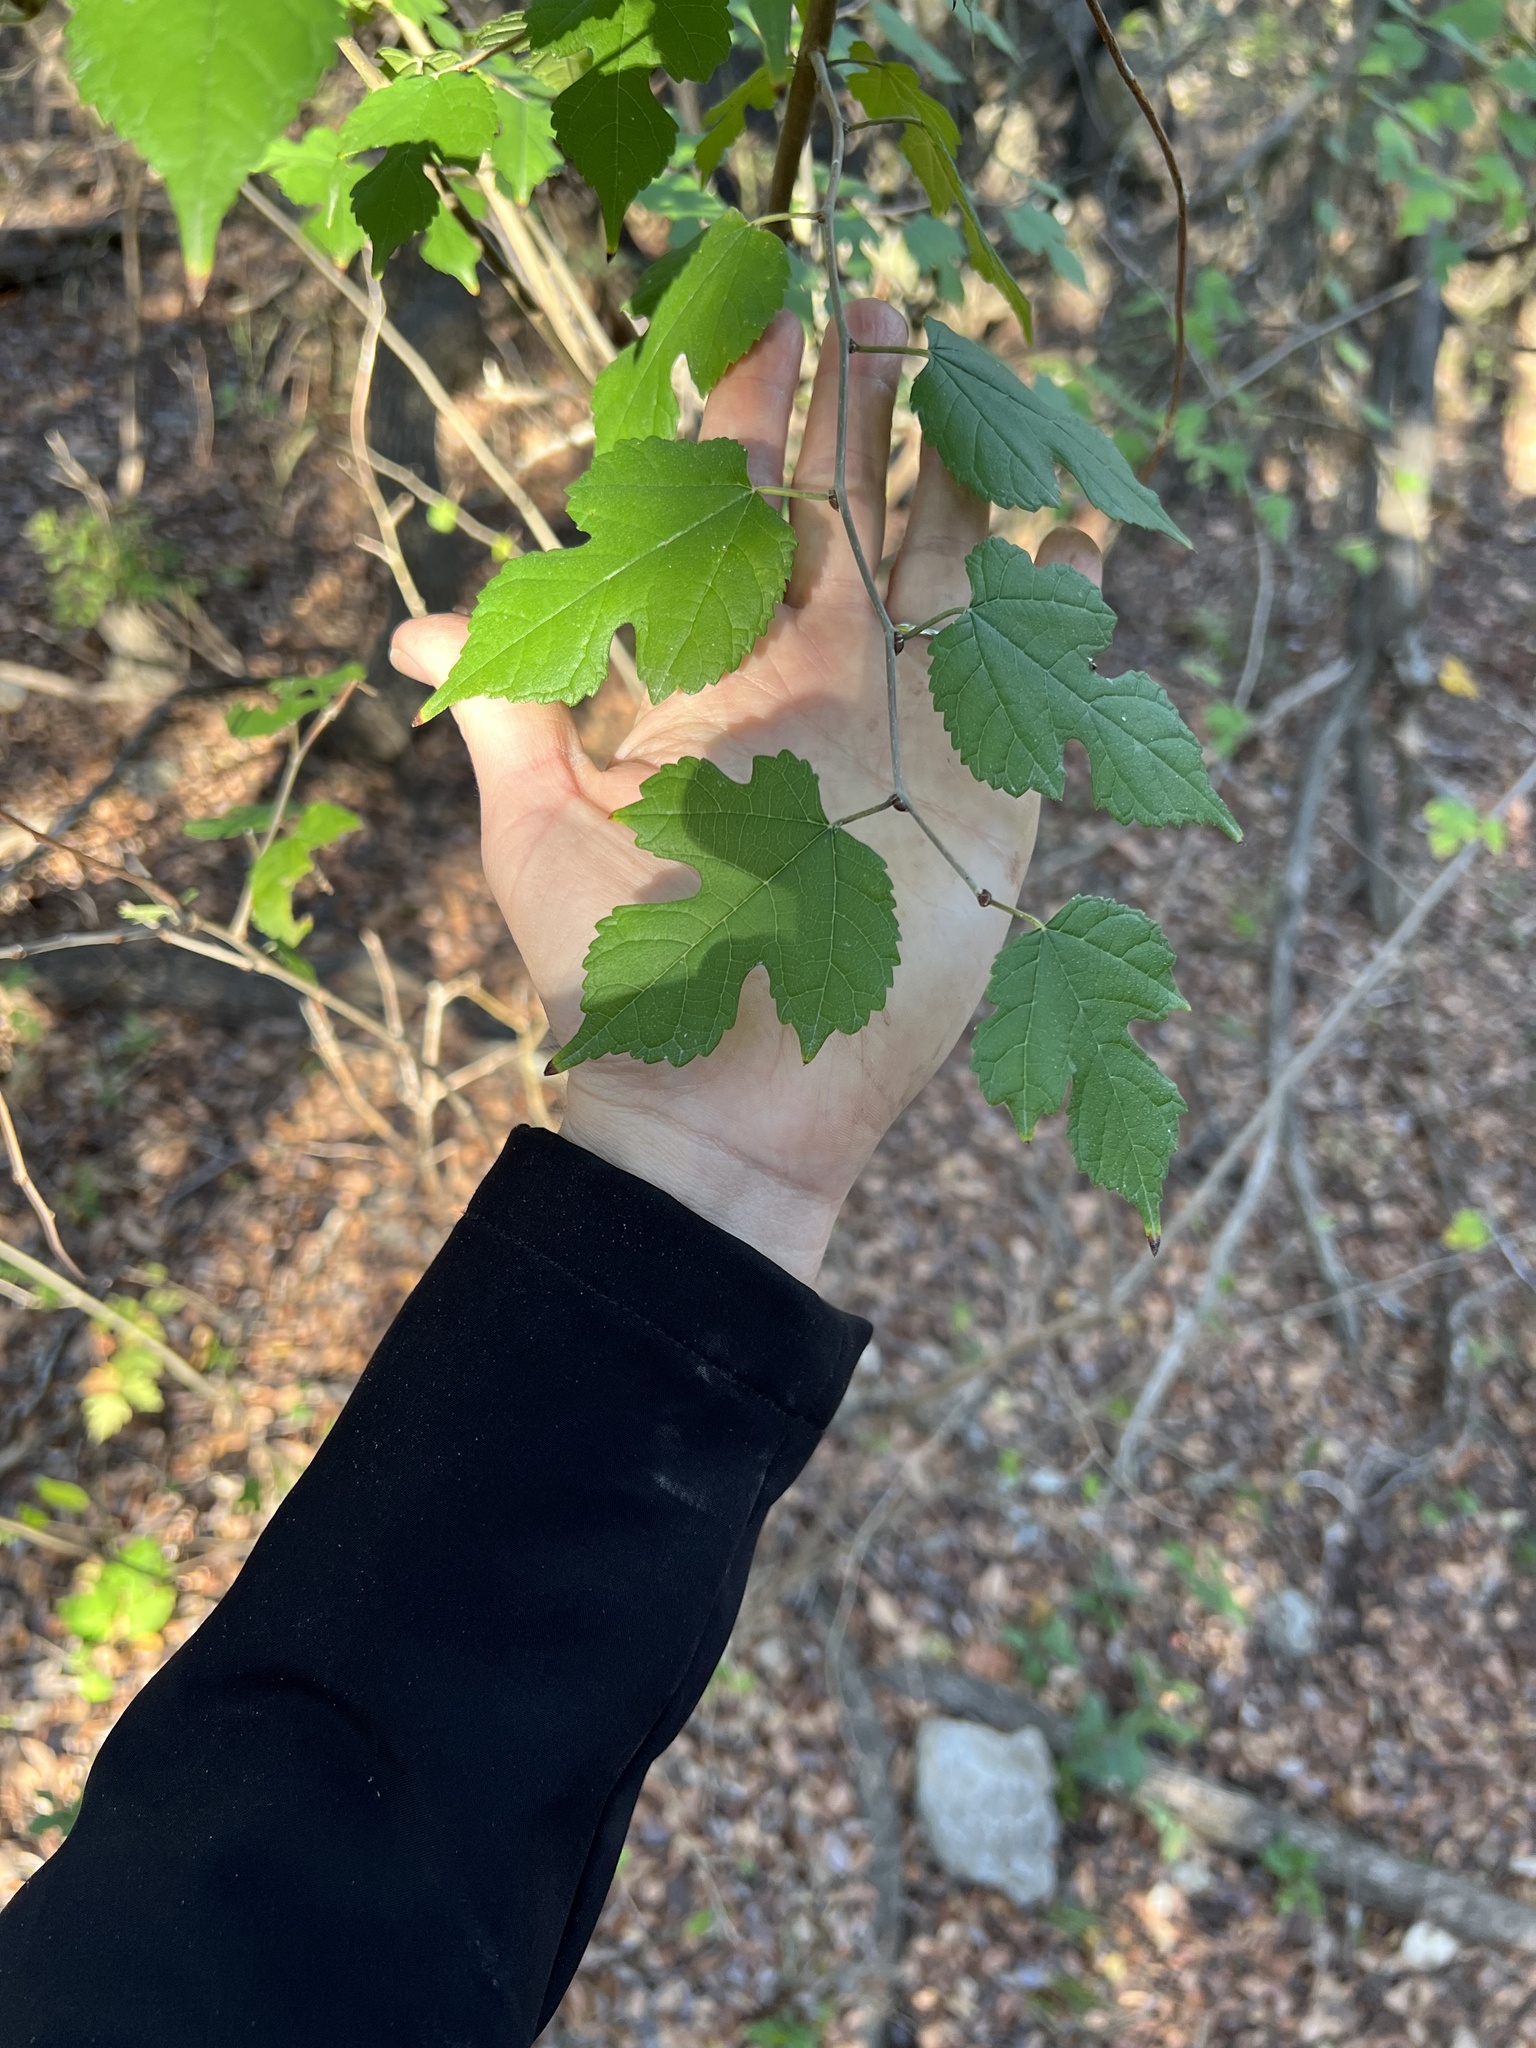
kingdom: Plantae
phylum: Tracheophyta
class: Magnoliopsida
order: Rosales
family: Moraceae
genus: Morus
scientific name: Morus microphylla
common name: Mexican mulberry
